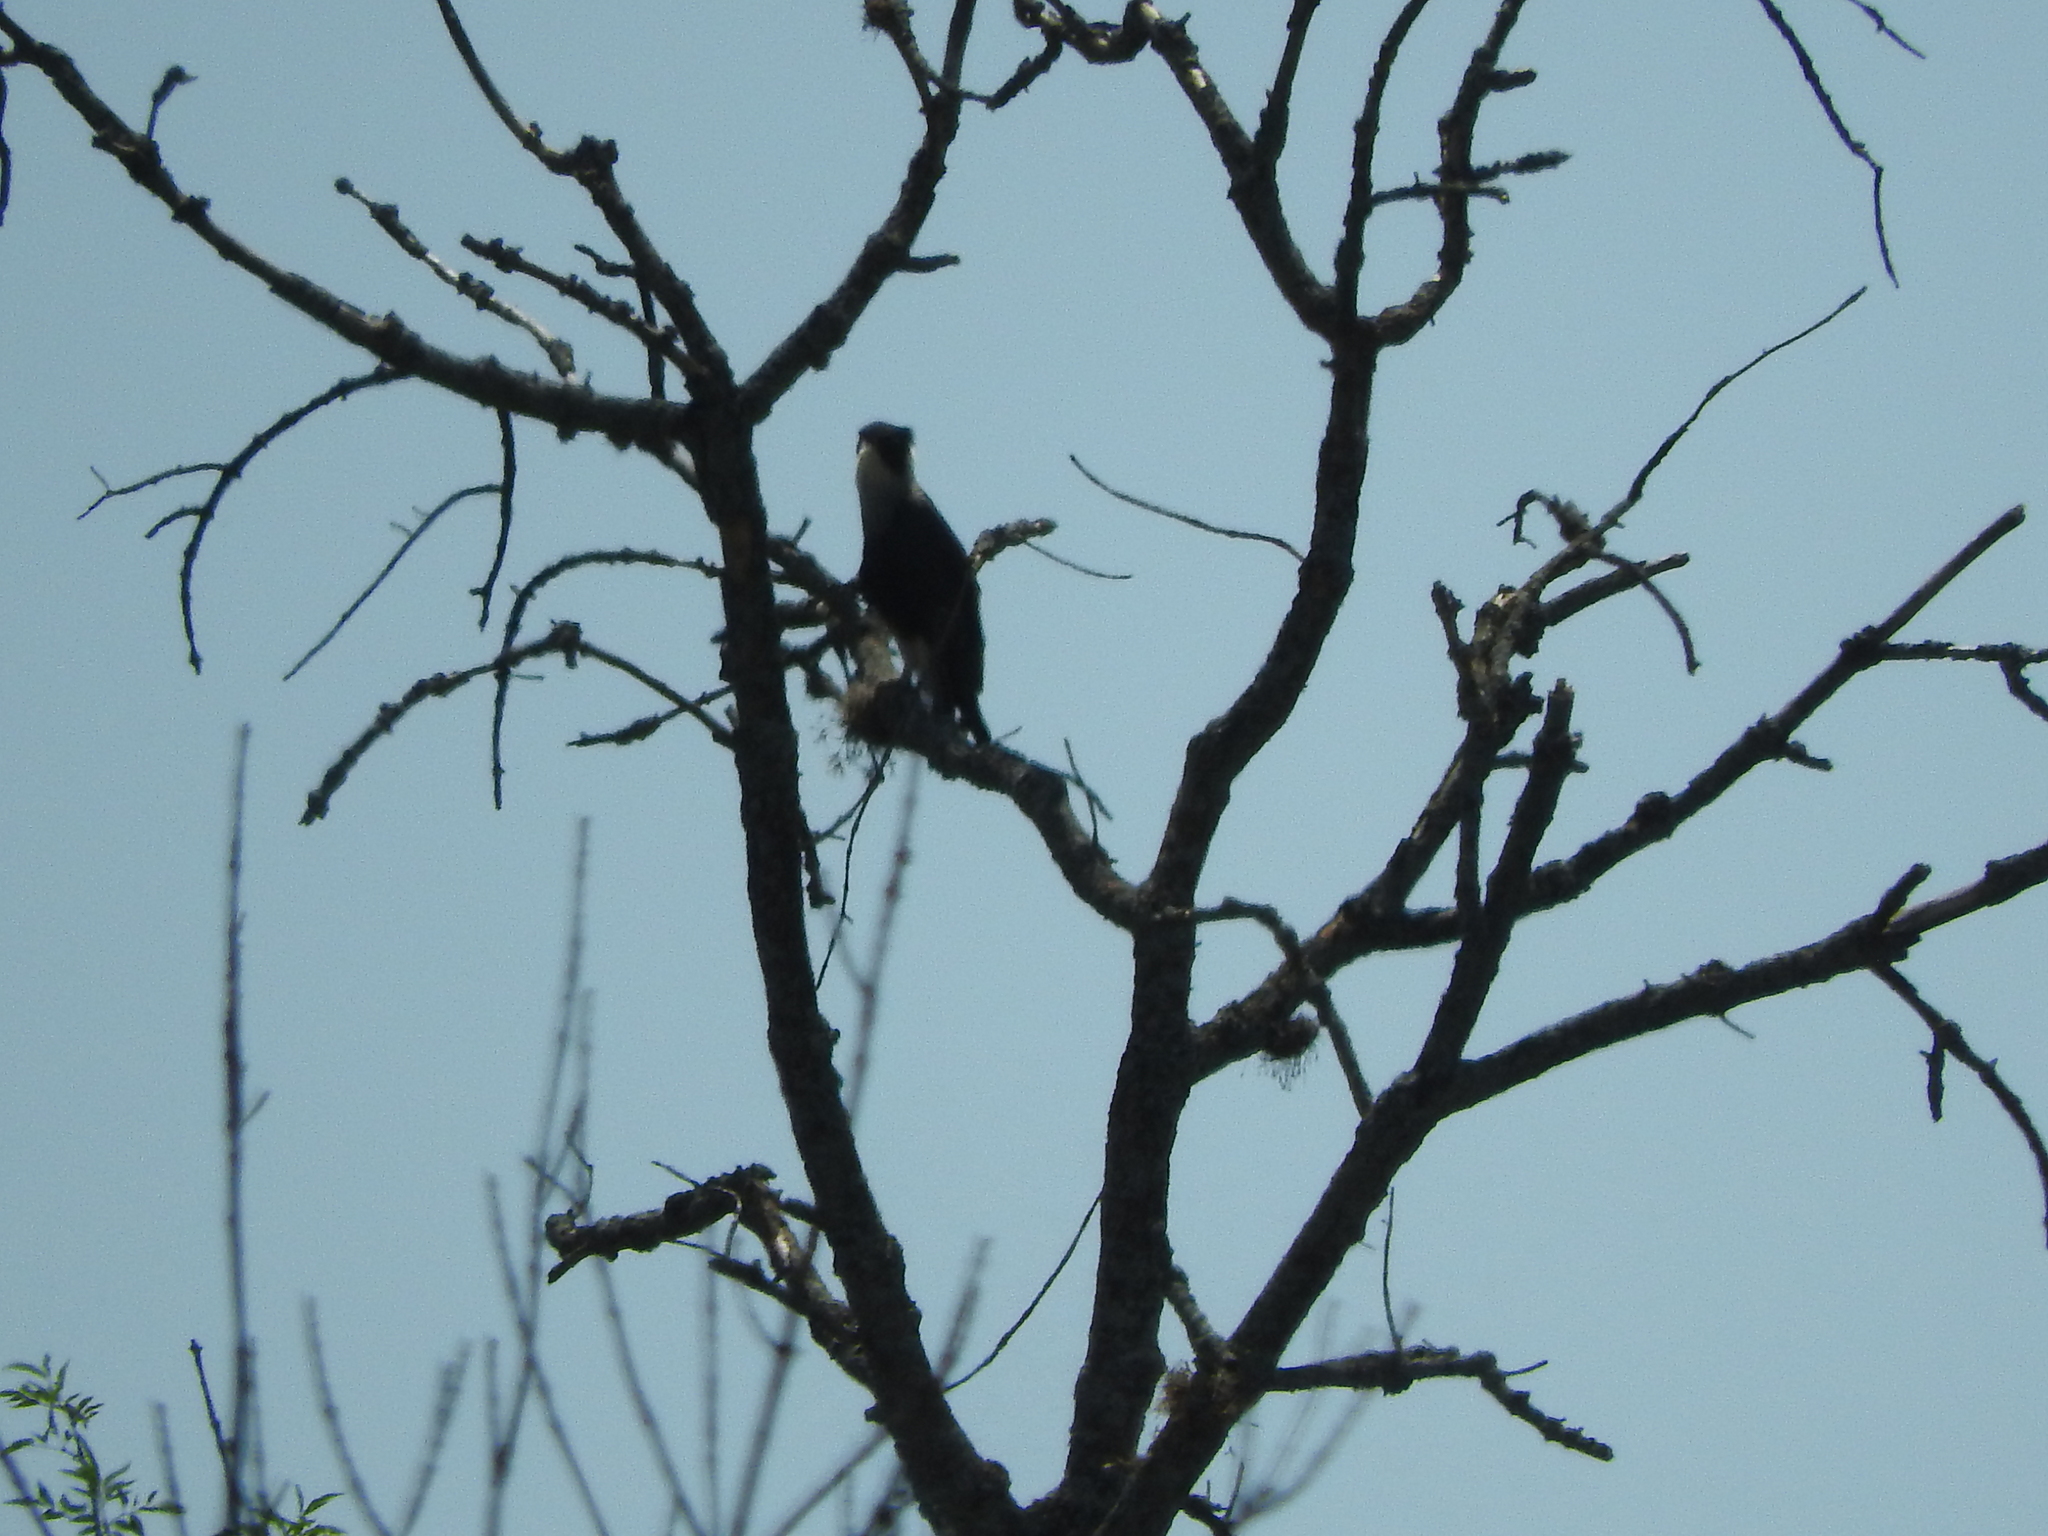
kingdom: Animalia
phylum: Chordata
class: Aves
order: Falconiformes
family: Falconidae
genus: Caracara
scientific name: Caracara plancus
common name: Southern caracara
